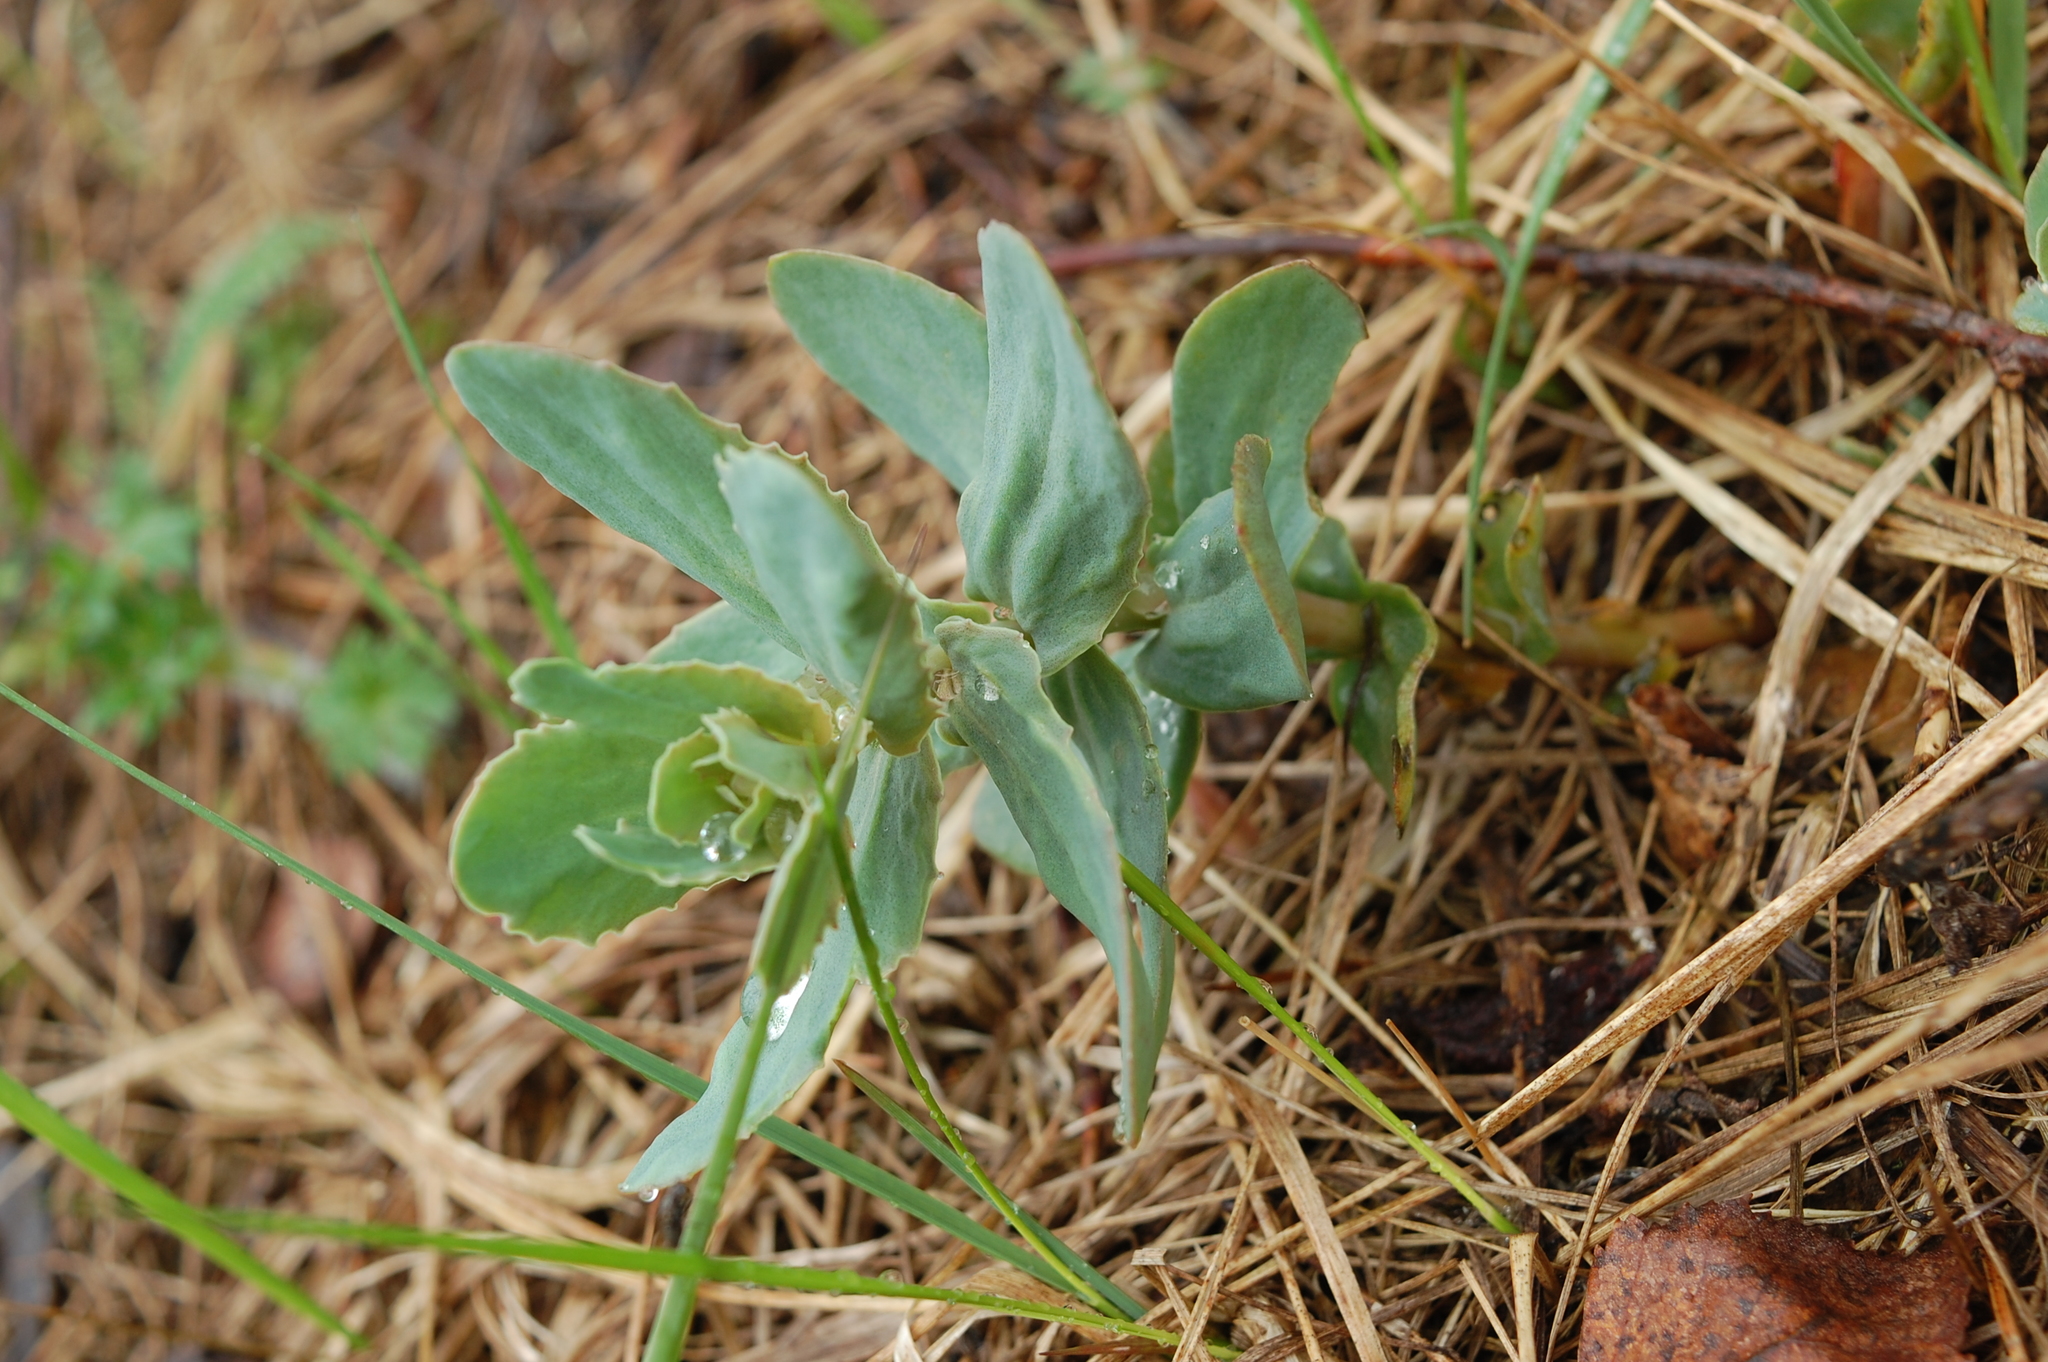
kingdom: Plantae
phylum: Tracheophyta
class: Magnoliopsida
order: Saxifragales
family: Crassulaceae
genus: Hylotelephium
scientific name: Hylotelephium maximum
